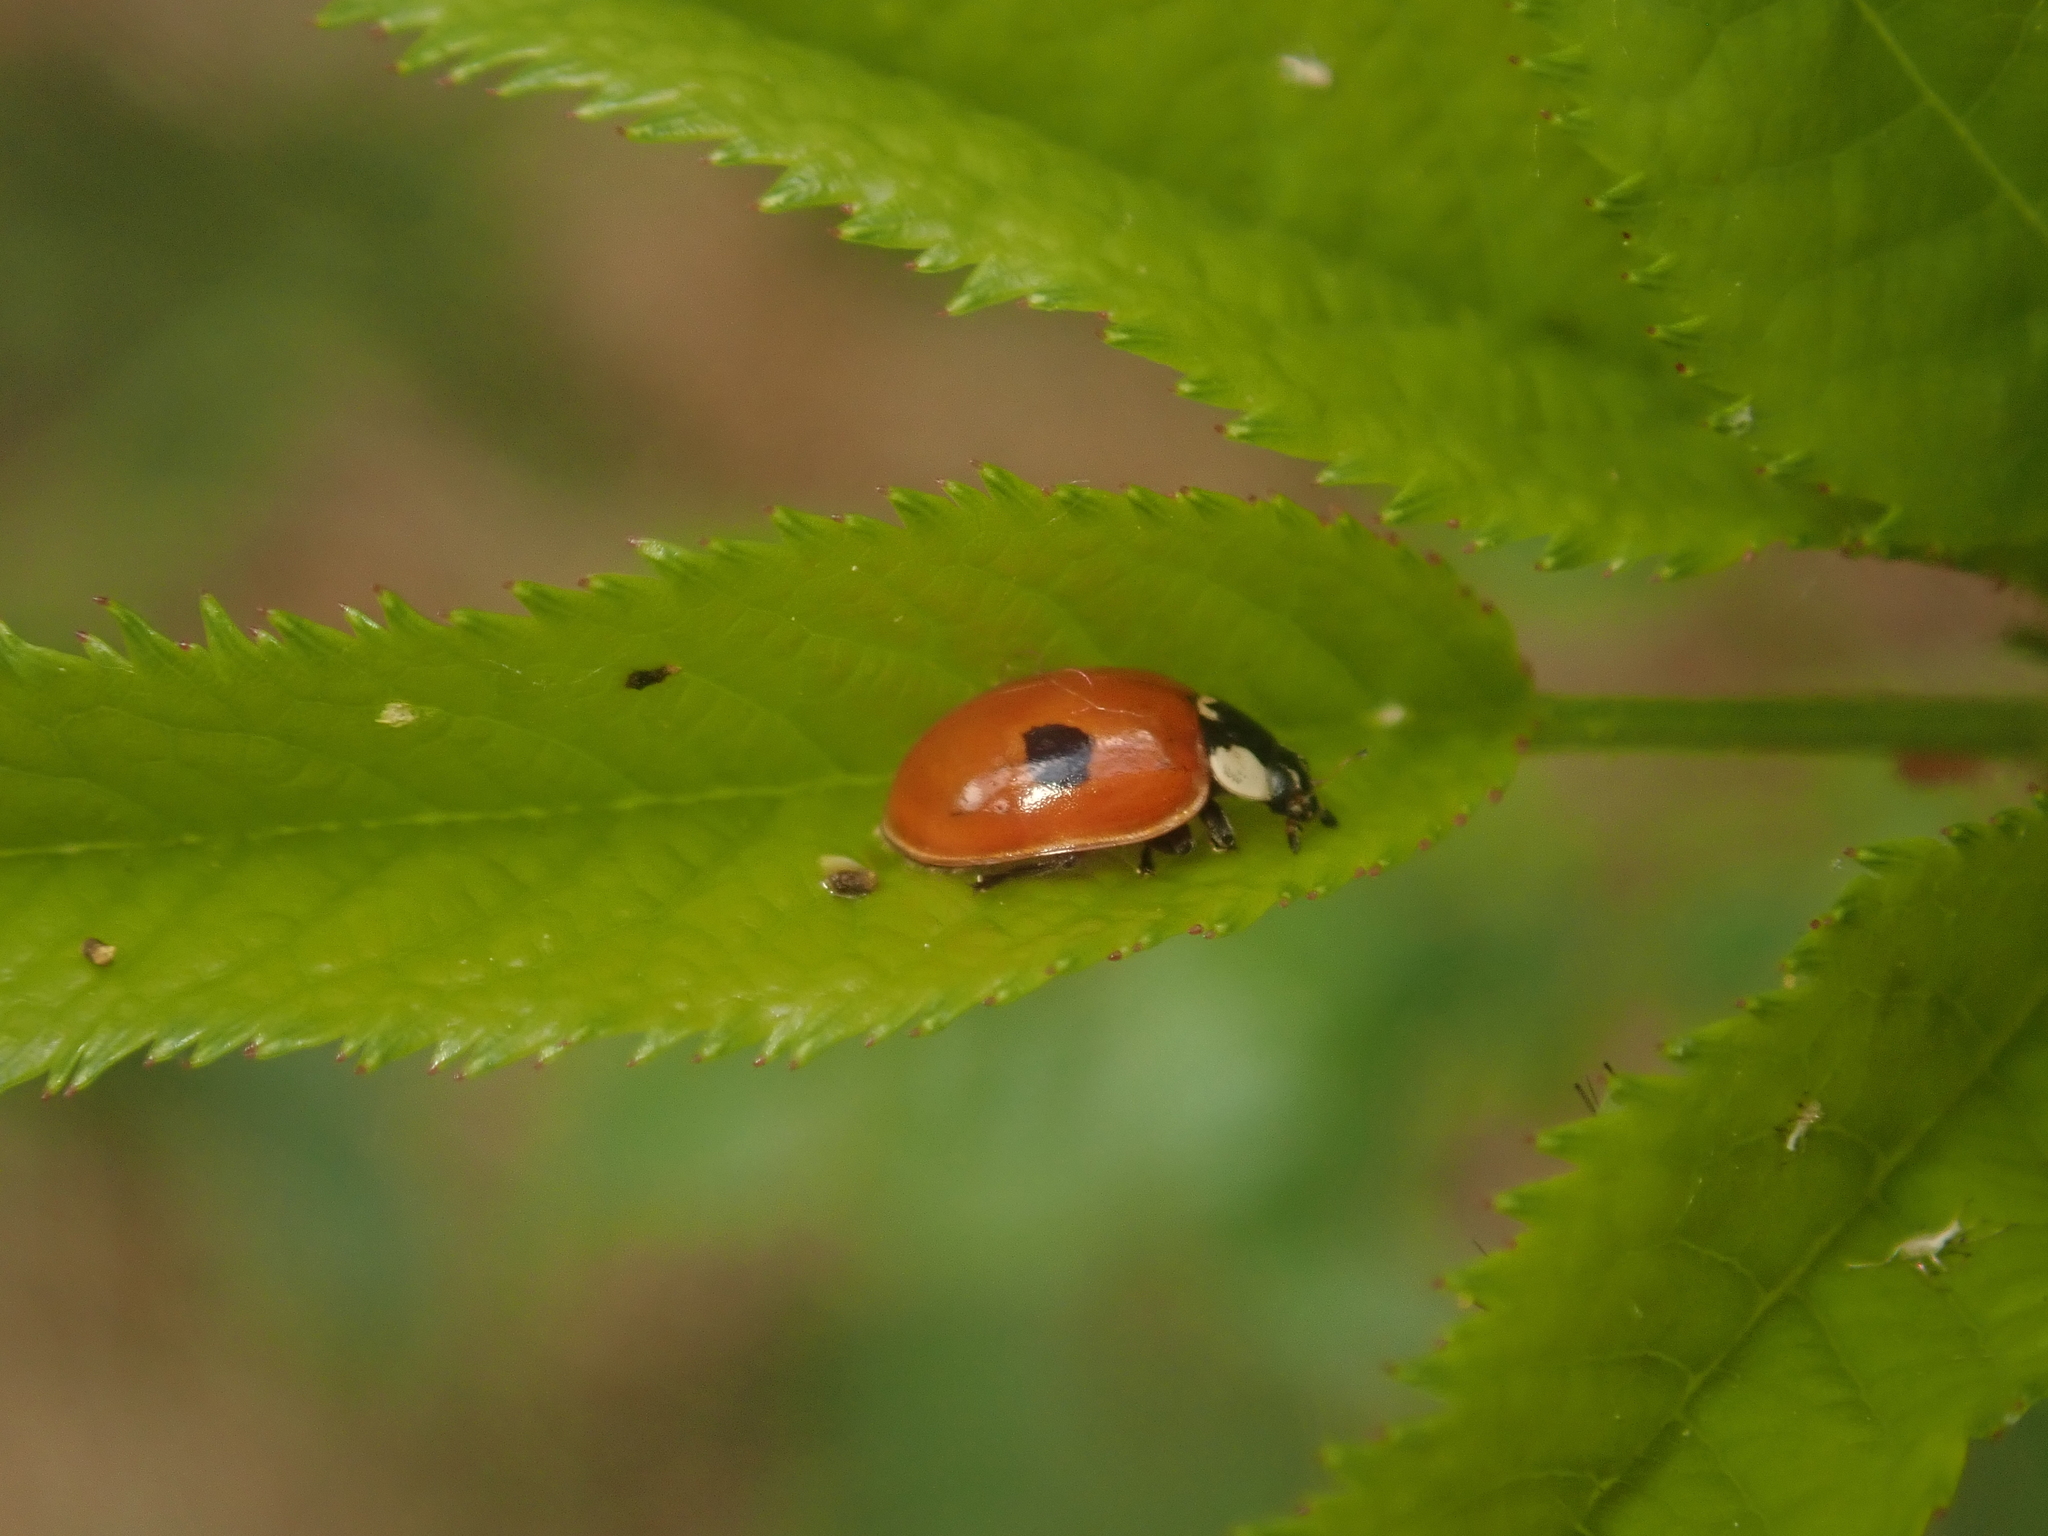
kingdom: Animalia
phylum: Arthropoda
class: Insecta
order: Coleoptera
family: Coccinellidae
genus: Adalia
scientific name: Adalia bipunctata
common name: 2-spot ladybird
